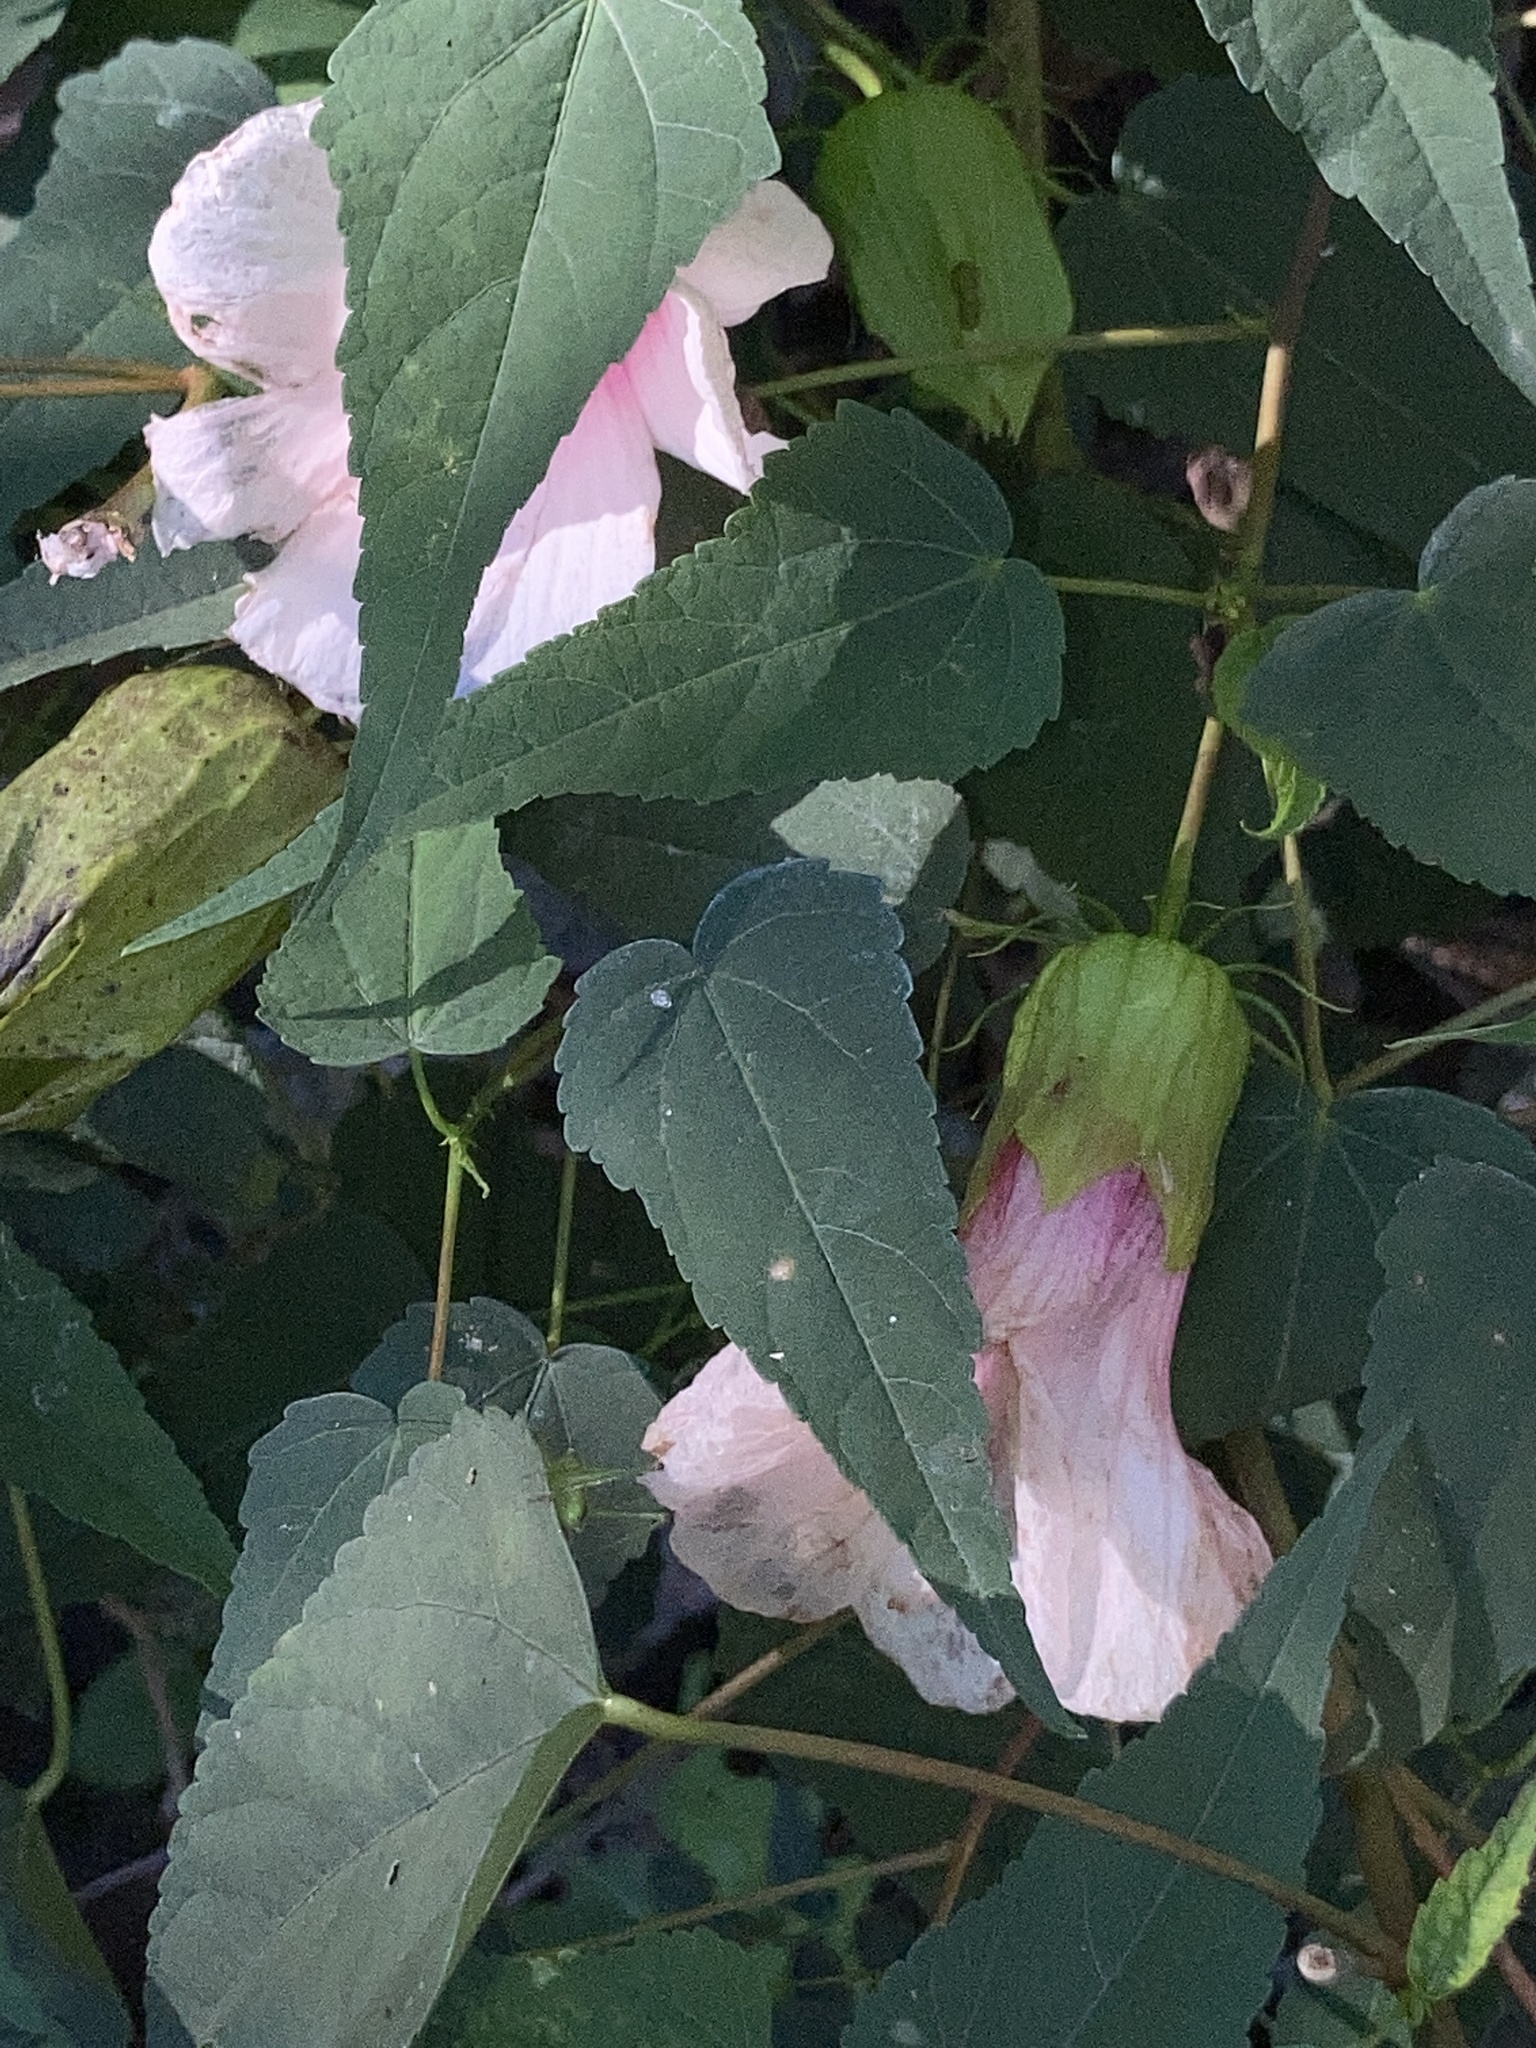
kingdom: Plantae
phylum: Tracheophyta
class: Magnoliopsida
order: Malvales
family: Malvaceae
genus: Hibiscus
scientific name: Hibiscus laevis
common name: Scarlet rose-mallow
